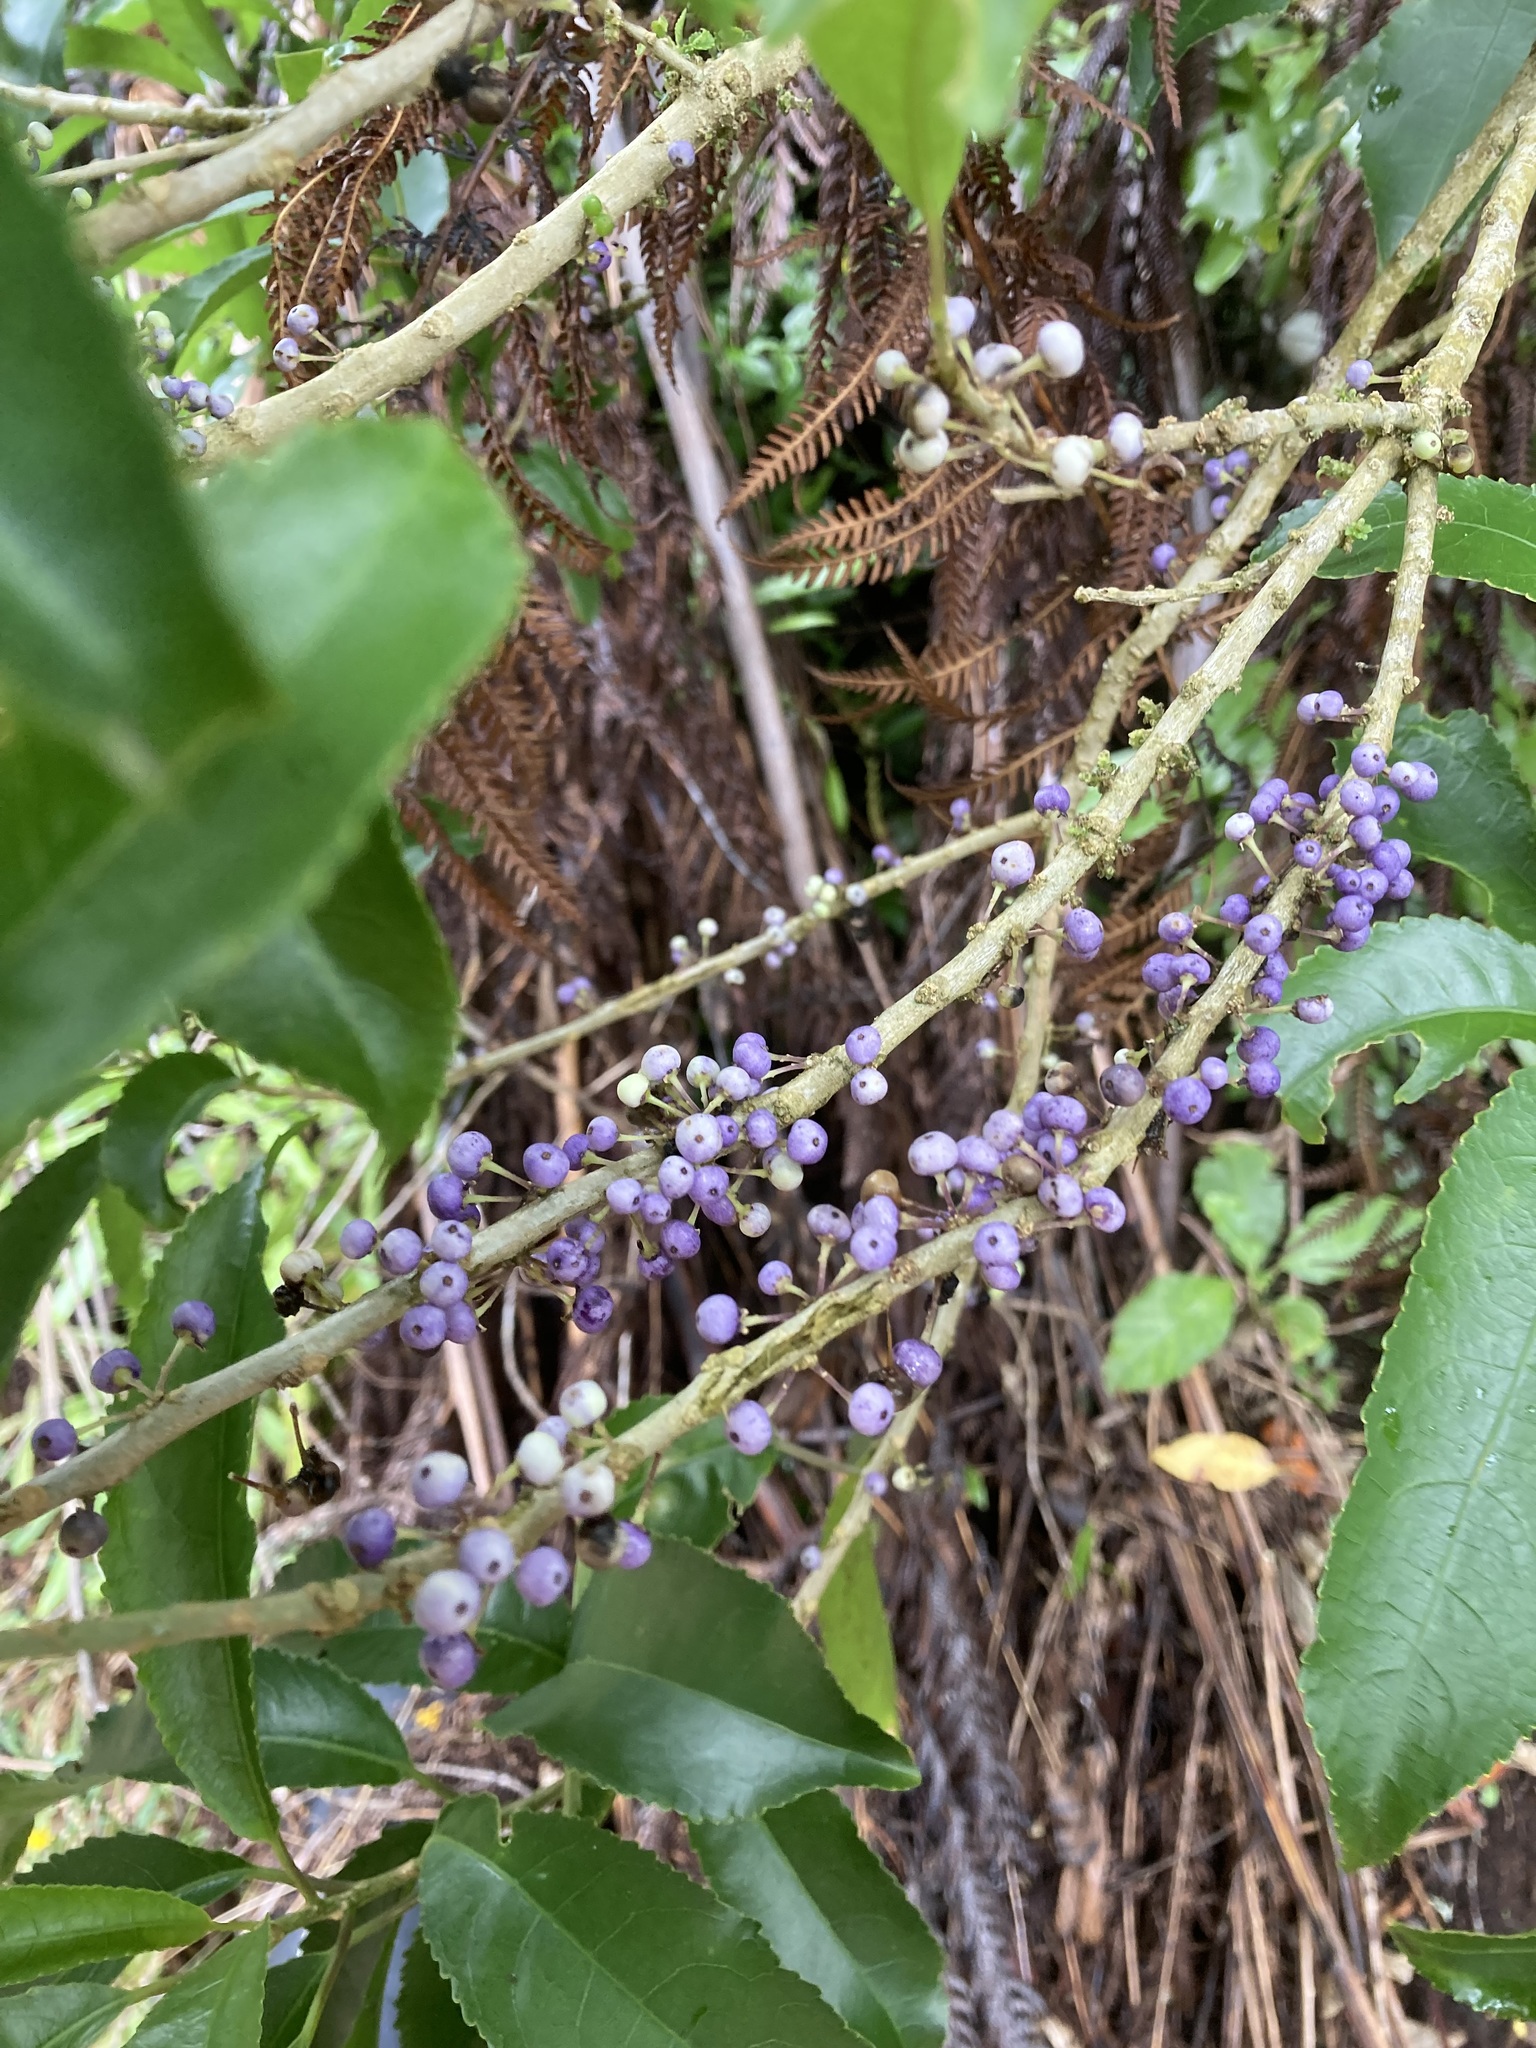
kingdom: Plantae
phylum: Tracheophyta
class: Magnoliopsida
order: Malpighiales
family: Violaceae
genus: Melicytus
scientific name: Melicytus ramiflorus
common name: Mahoe
